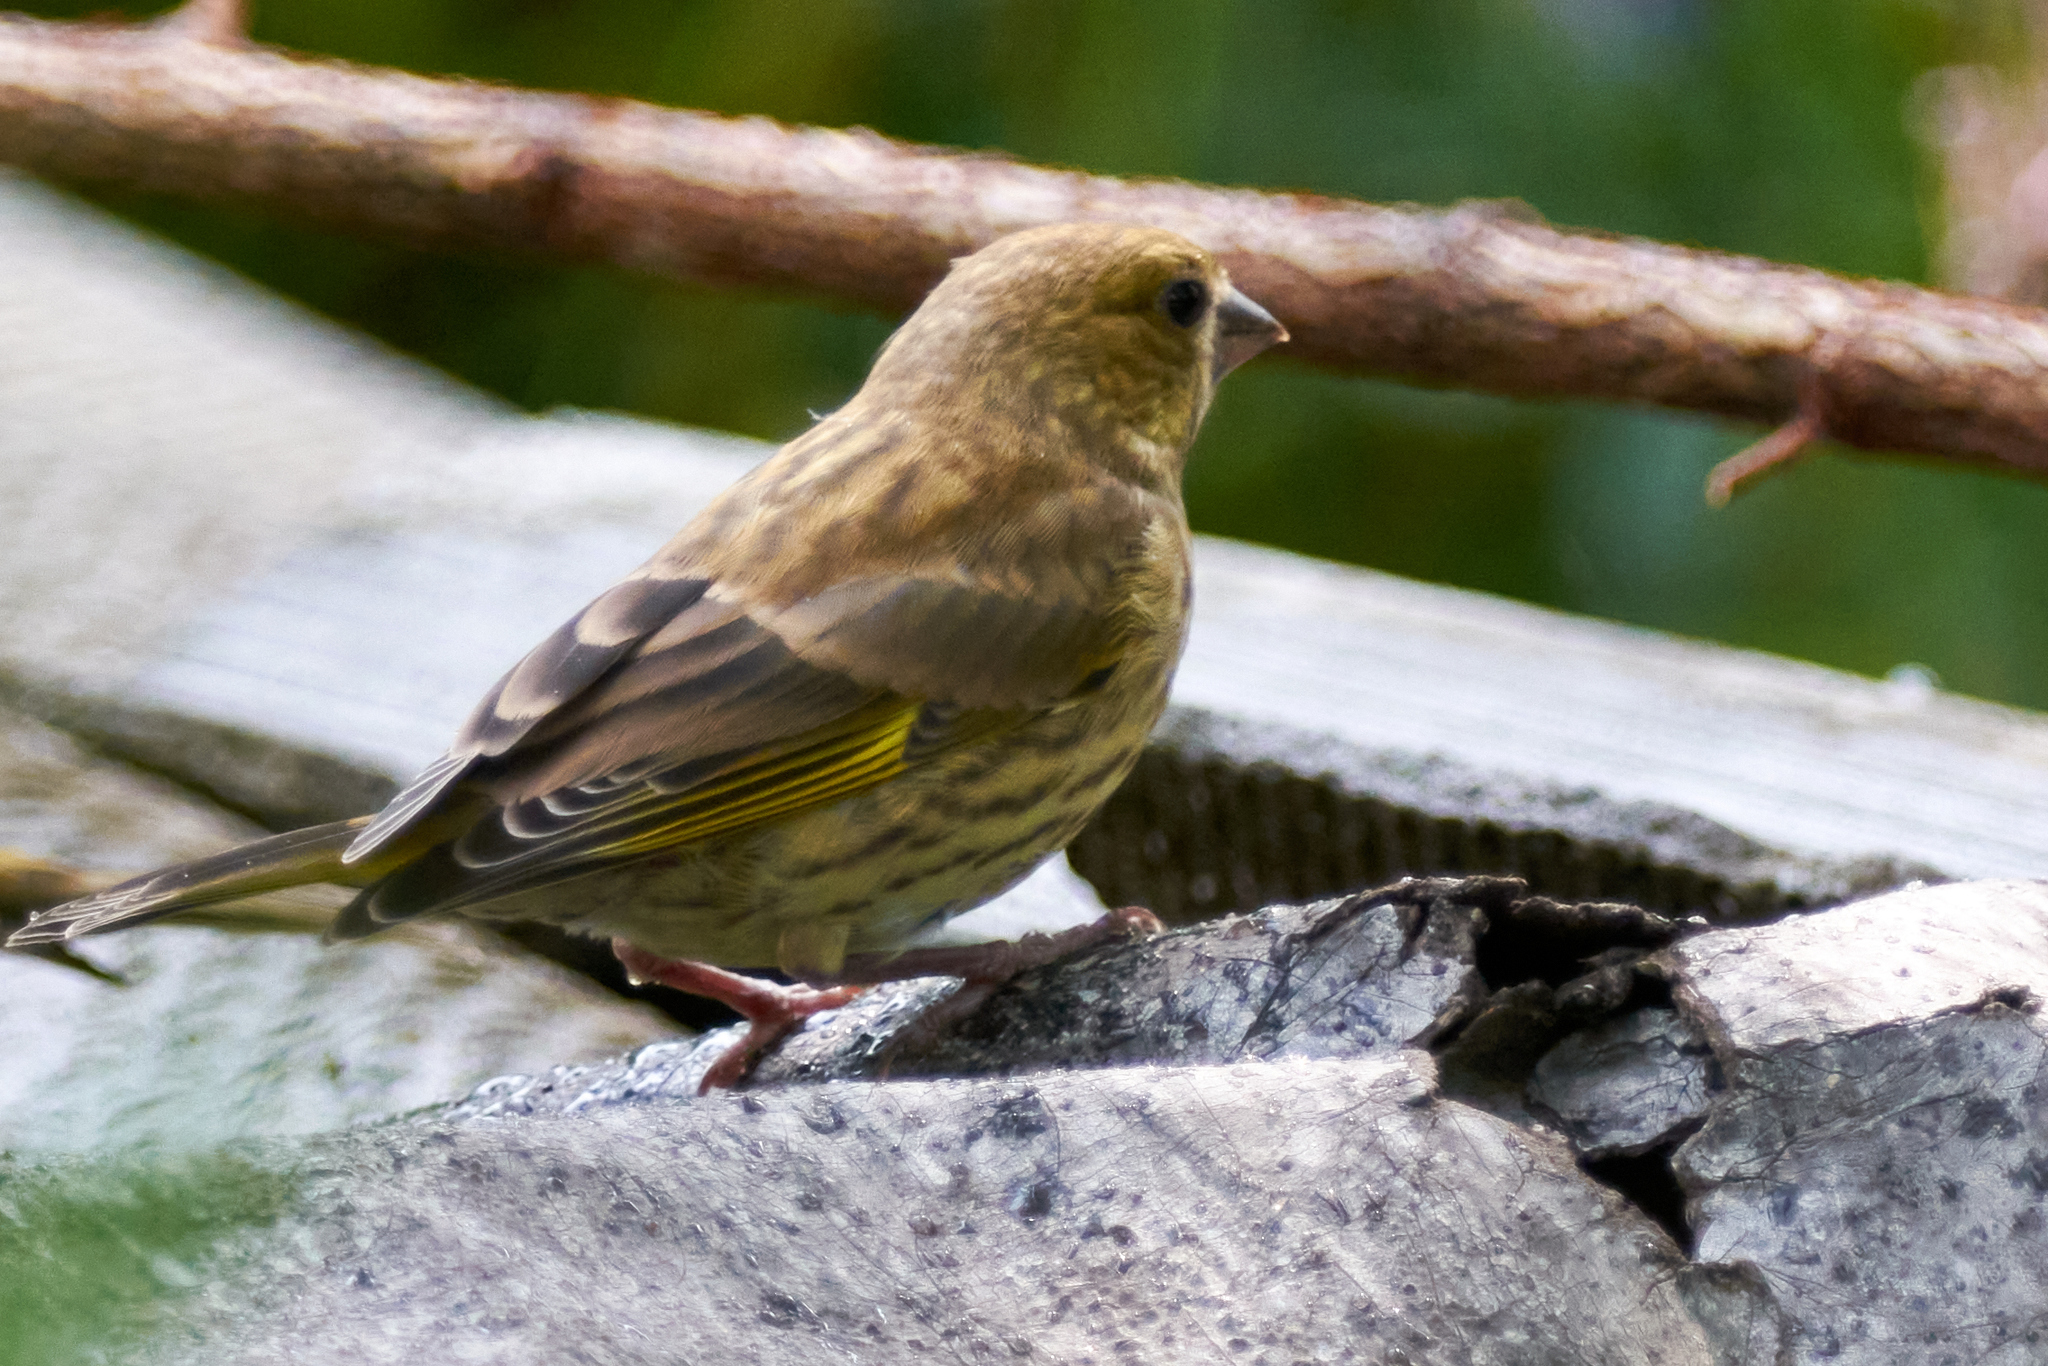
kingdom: Plantae
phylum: Tracheophyta
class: Liliopsida
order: Poales
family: Poaceae
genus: Chloris
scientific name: Chloris chloris
